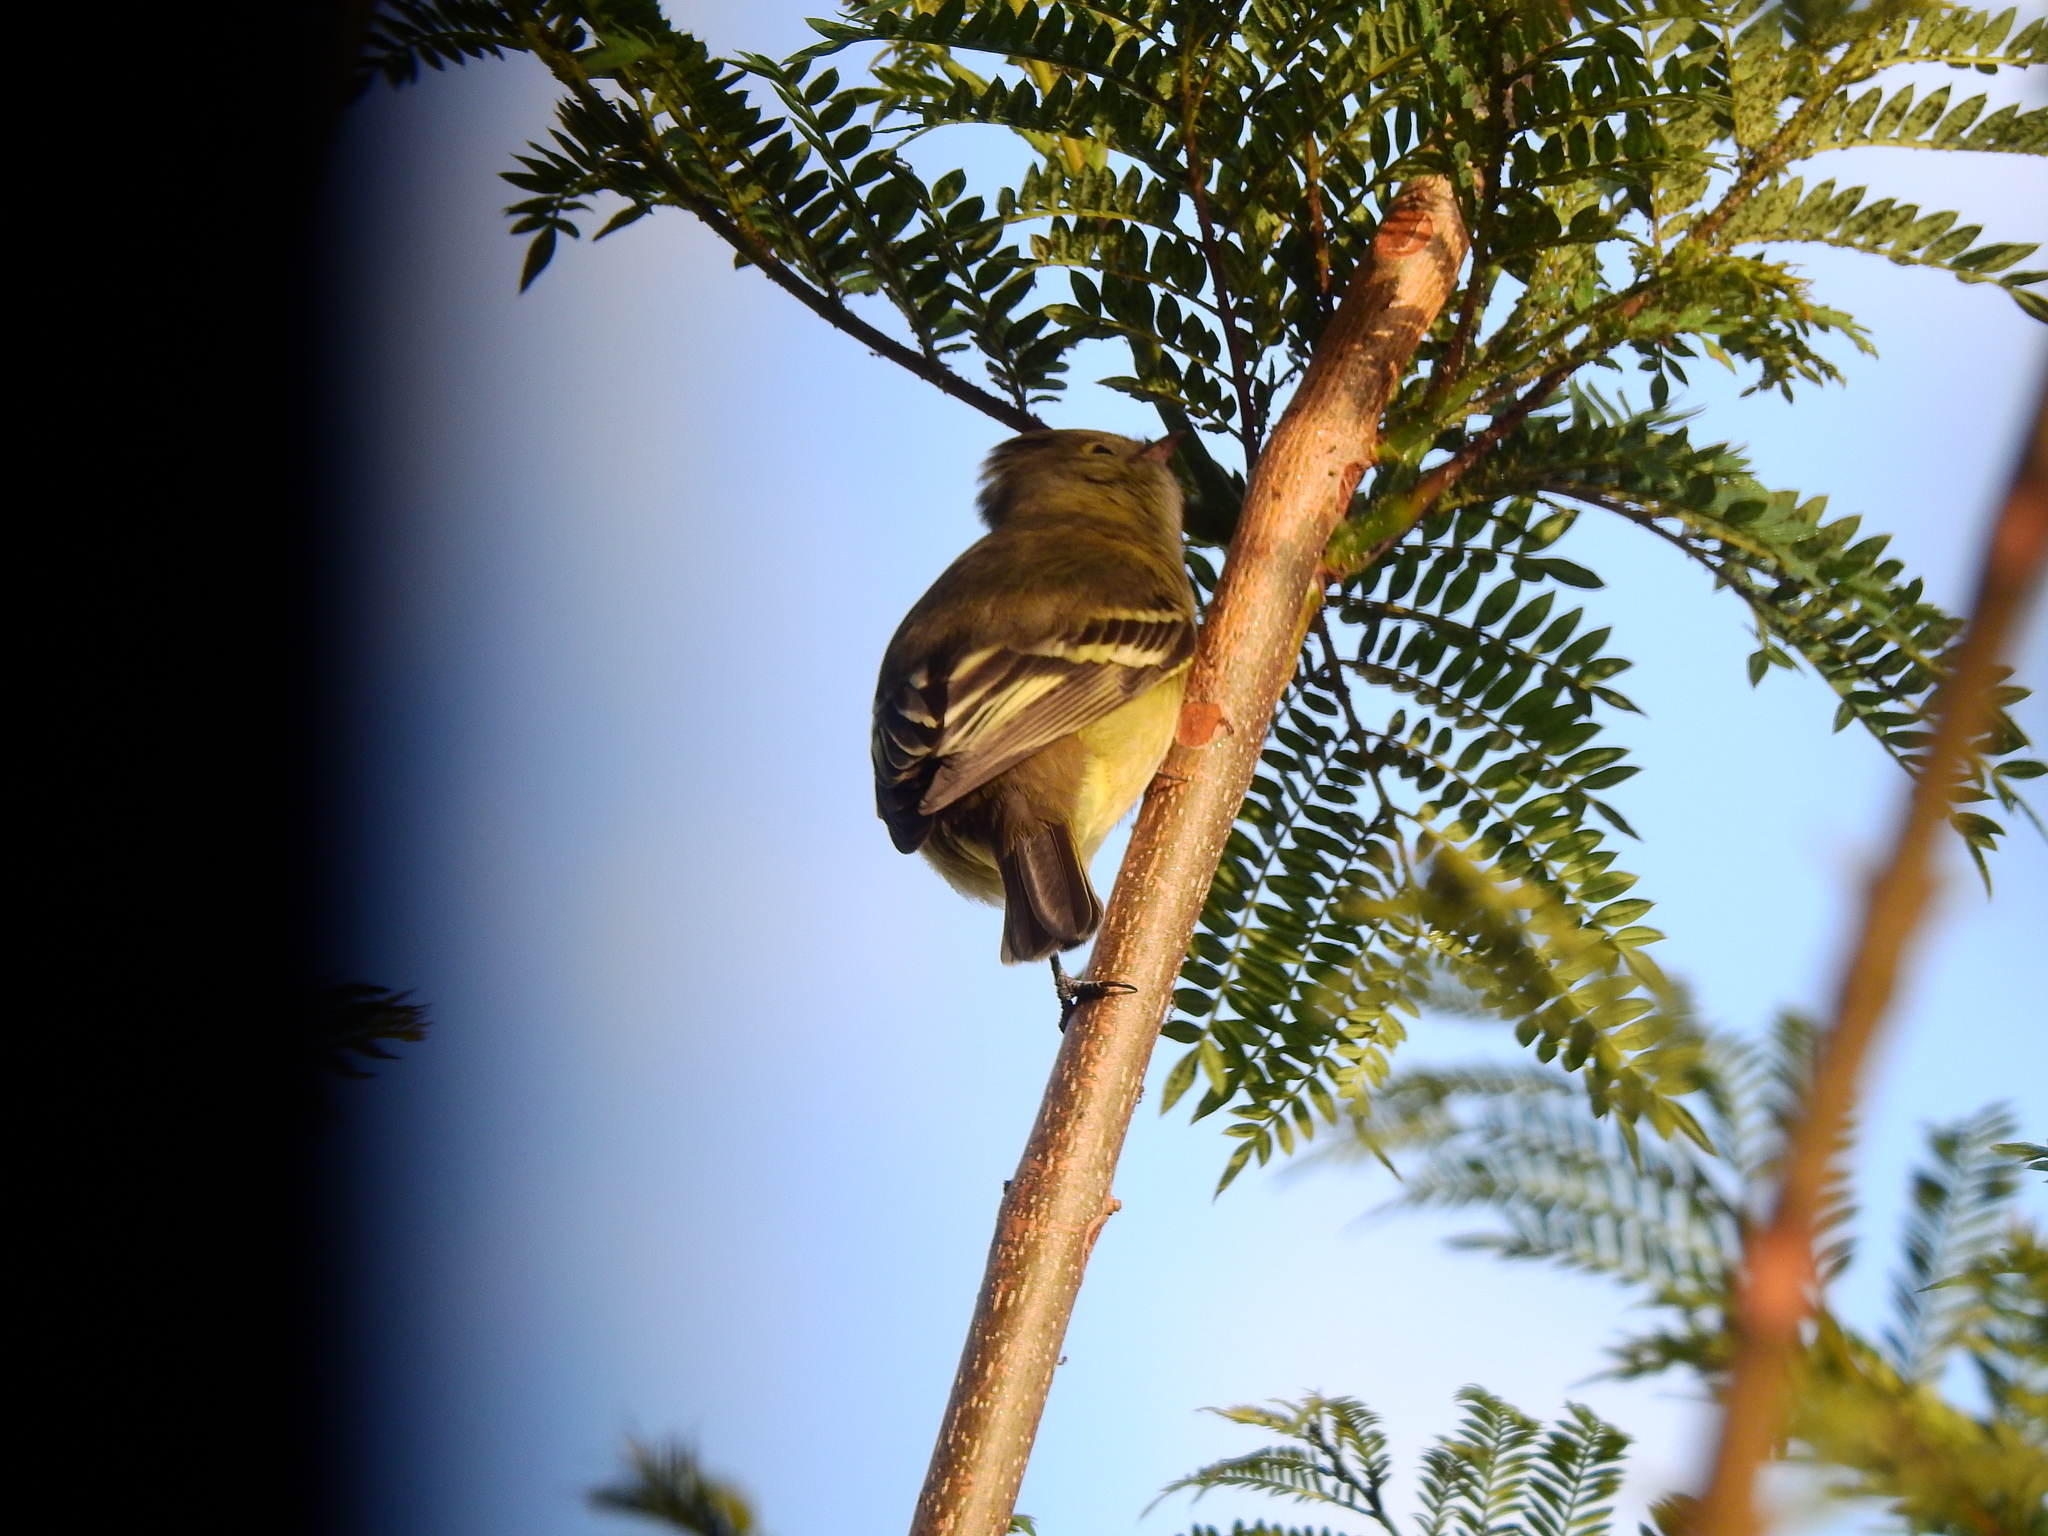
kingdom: Animalia
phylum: Chordata
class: Aves
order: Passeriformes
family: Tyrannidae
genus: Elaenia
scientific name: Elaenia albiceps
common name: White-crested elaenia
